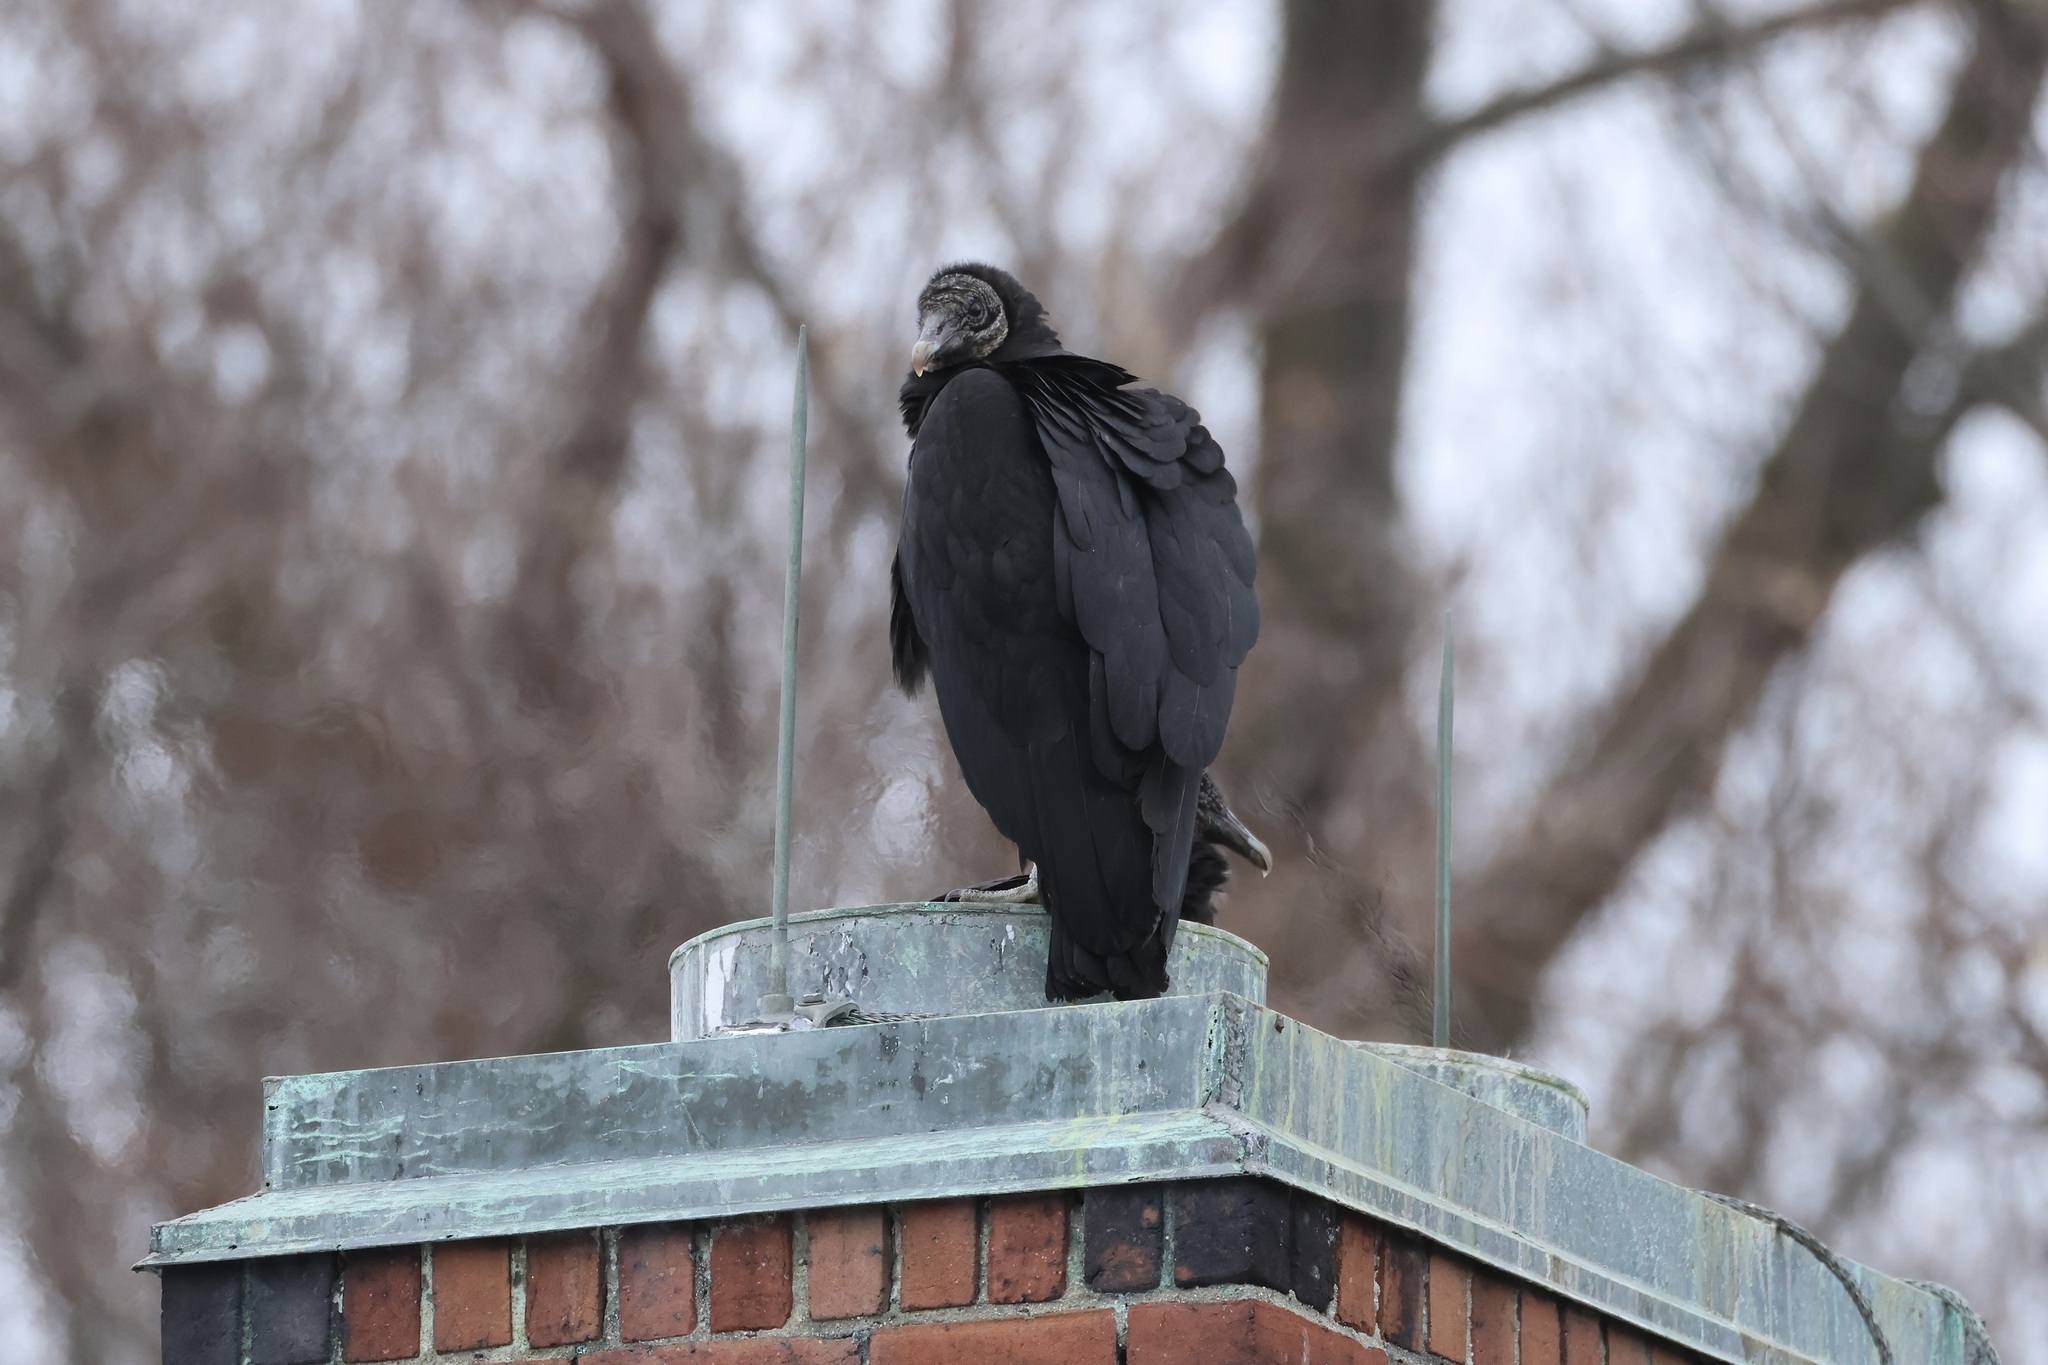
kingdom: Animalia
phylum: Chordata
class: Aves
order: Accipitriformes
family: Cathartidae
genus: Coragyps
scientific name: Coragyps atratus
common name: Black vulture
